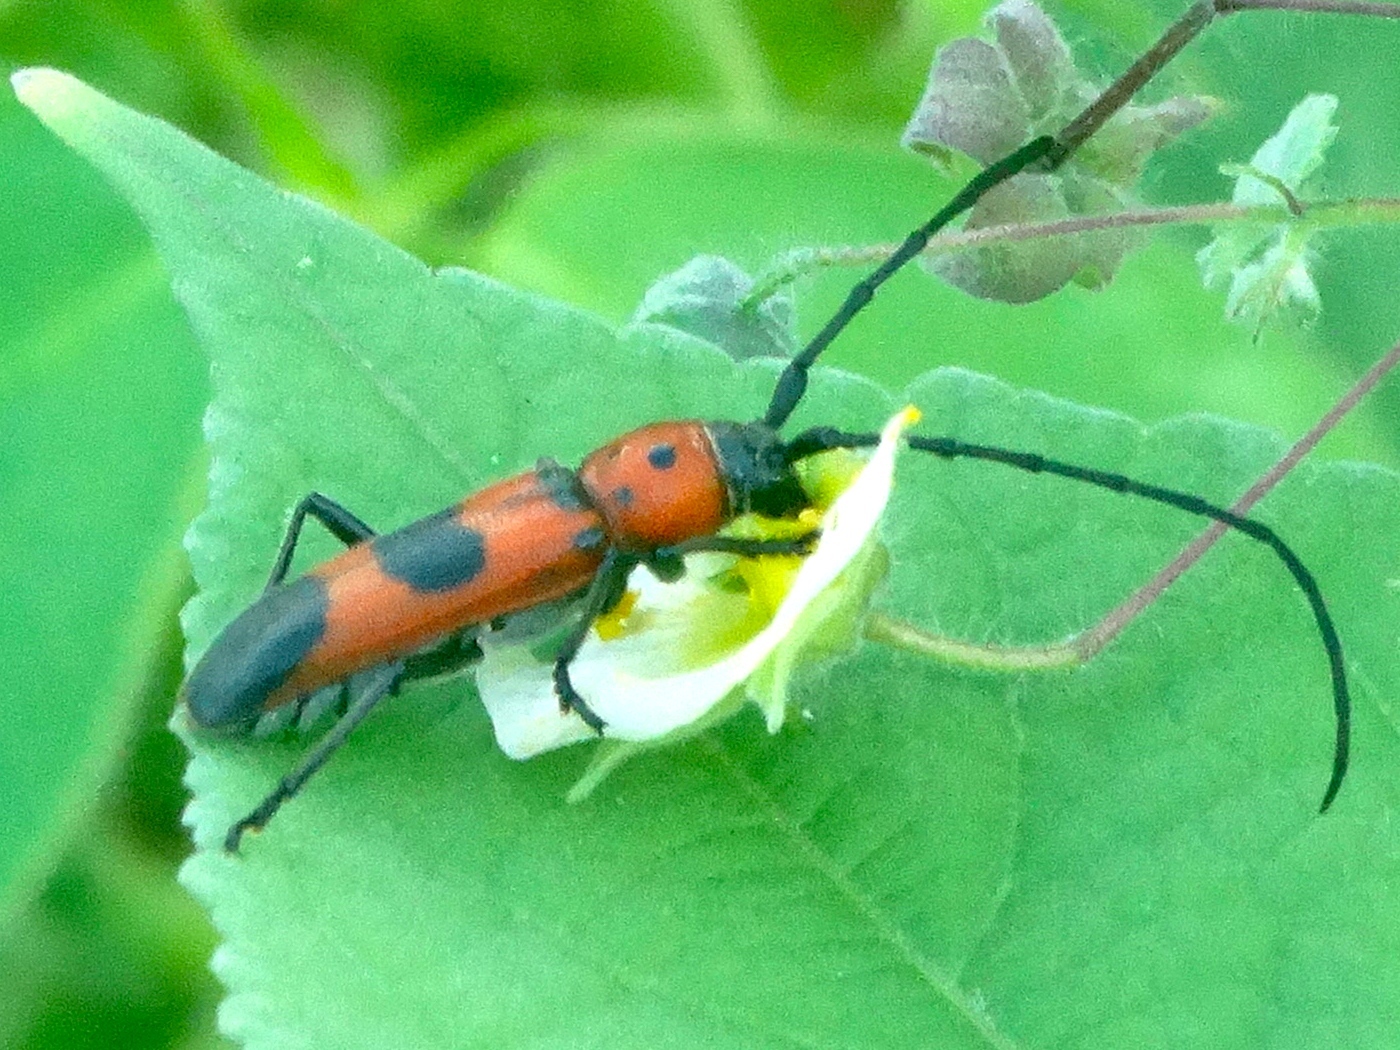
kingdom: Animalia
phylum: Arthropoda
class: Insecta
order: Coleoptera
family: Cerambycidae
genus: Tylosis
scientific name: Tylosis puncticollis
